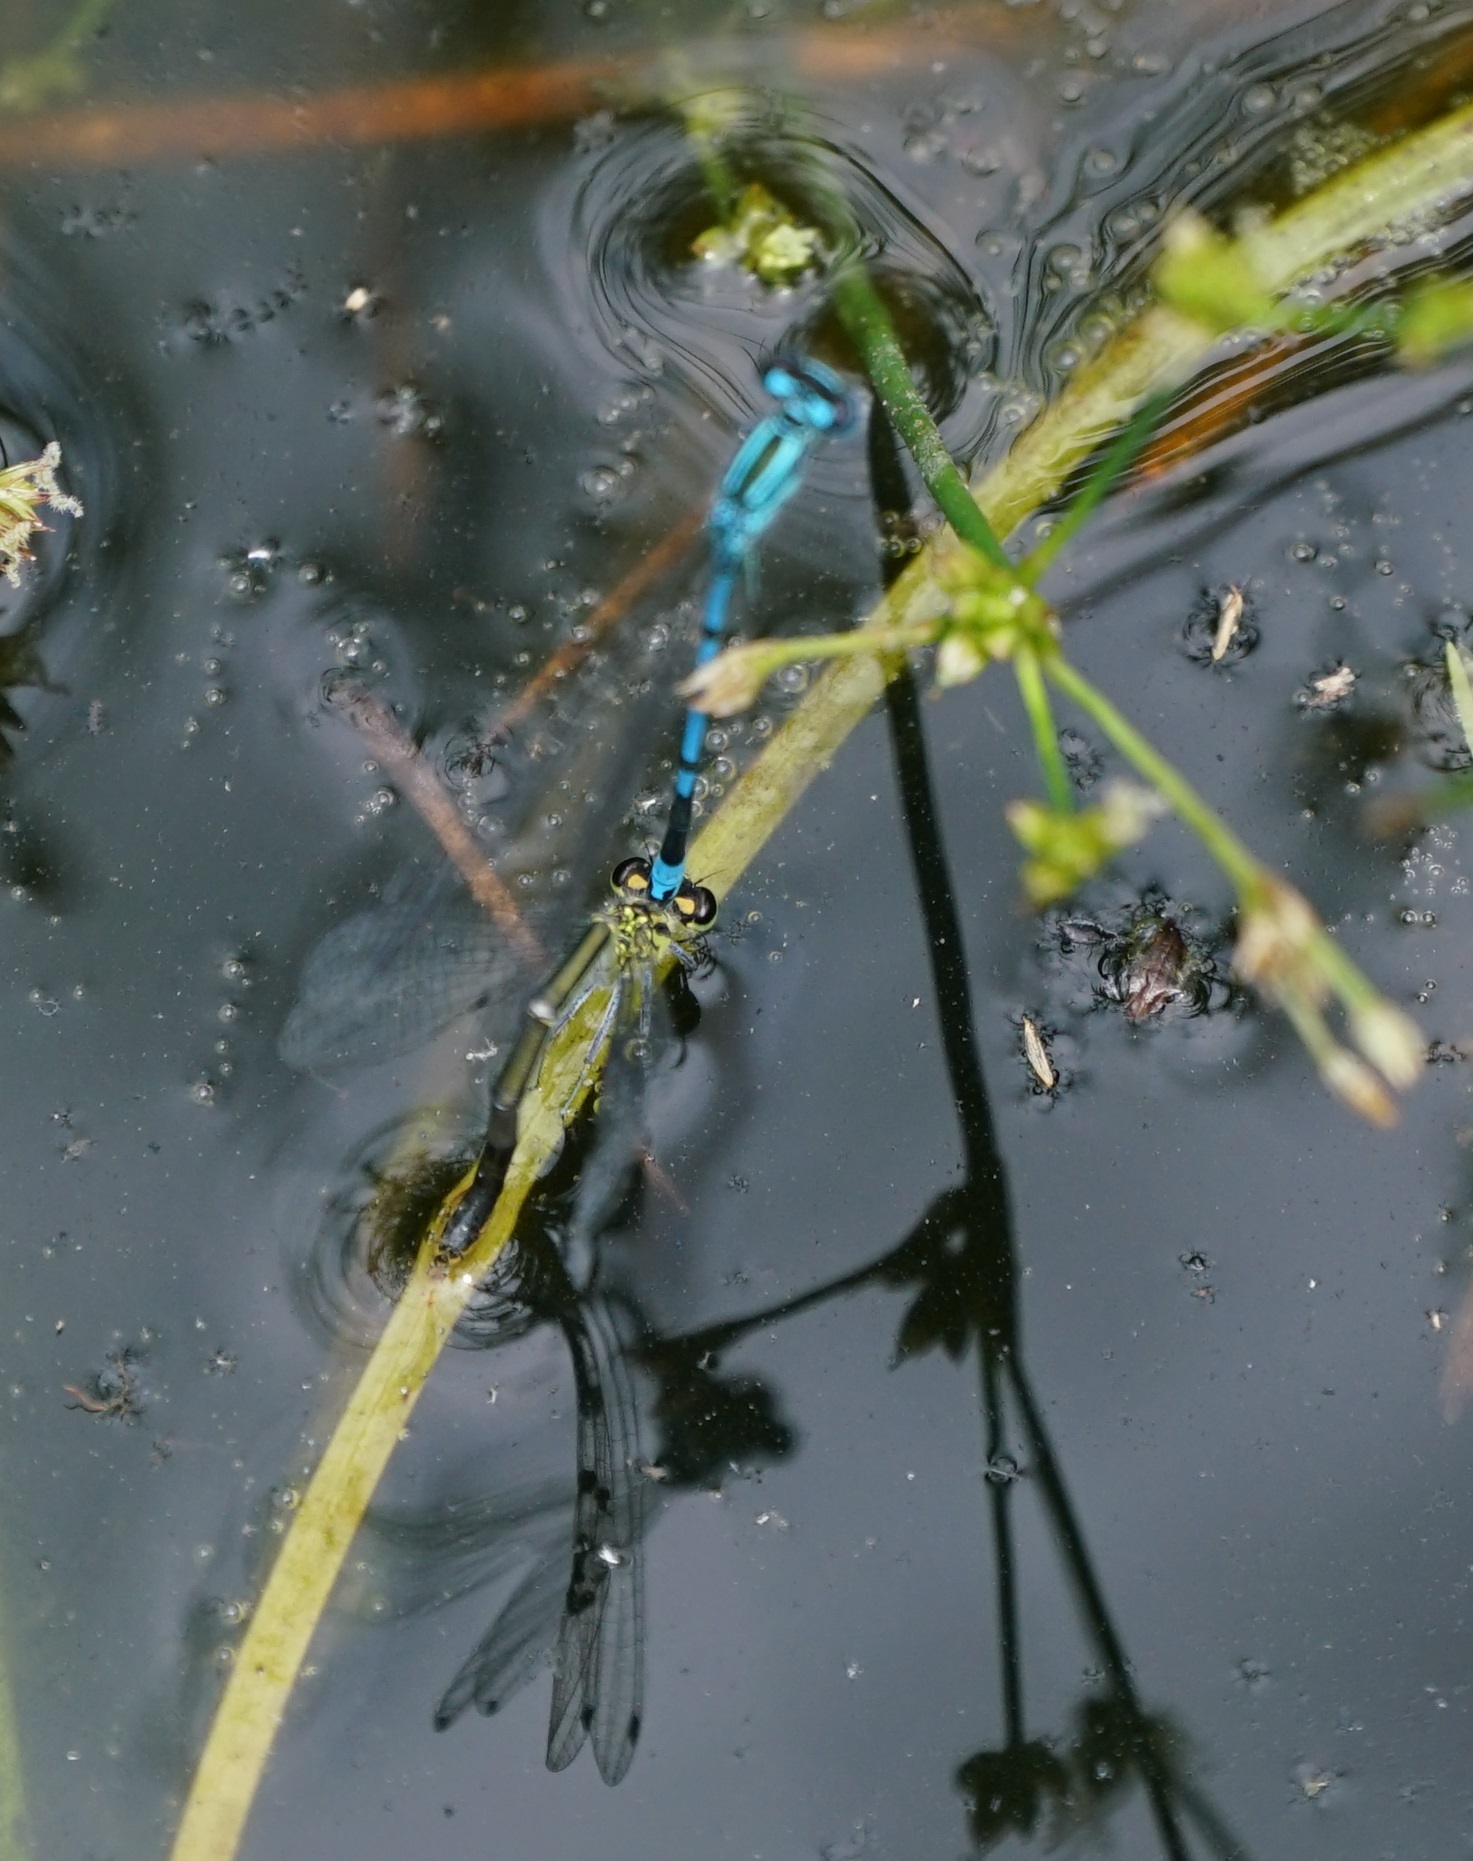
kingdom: Animalia
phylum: Arthropoda
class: Insecta
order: Odonata
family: Coenagrionidae
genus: Coenagrion
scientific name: Coenagrion puella
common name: Azure damselfly
